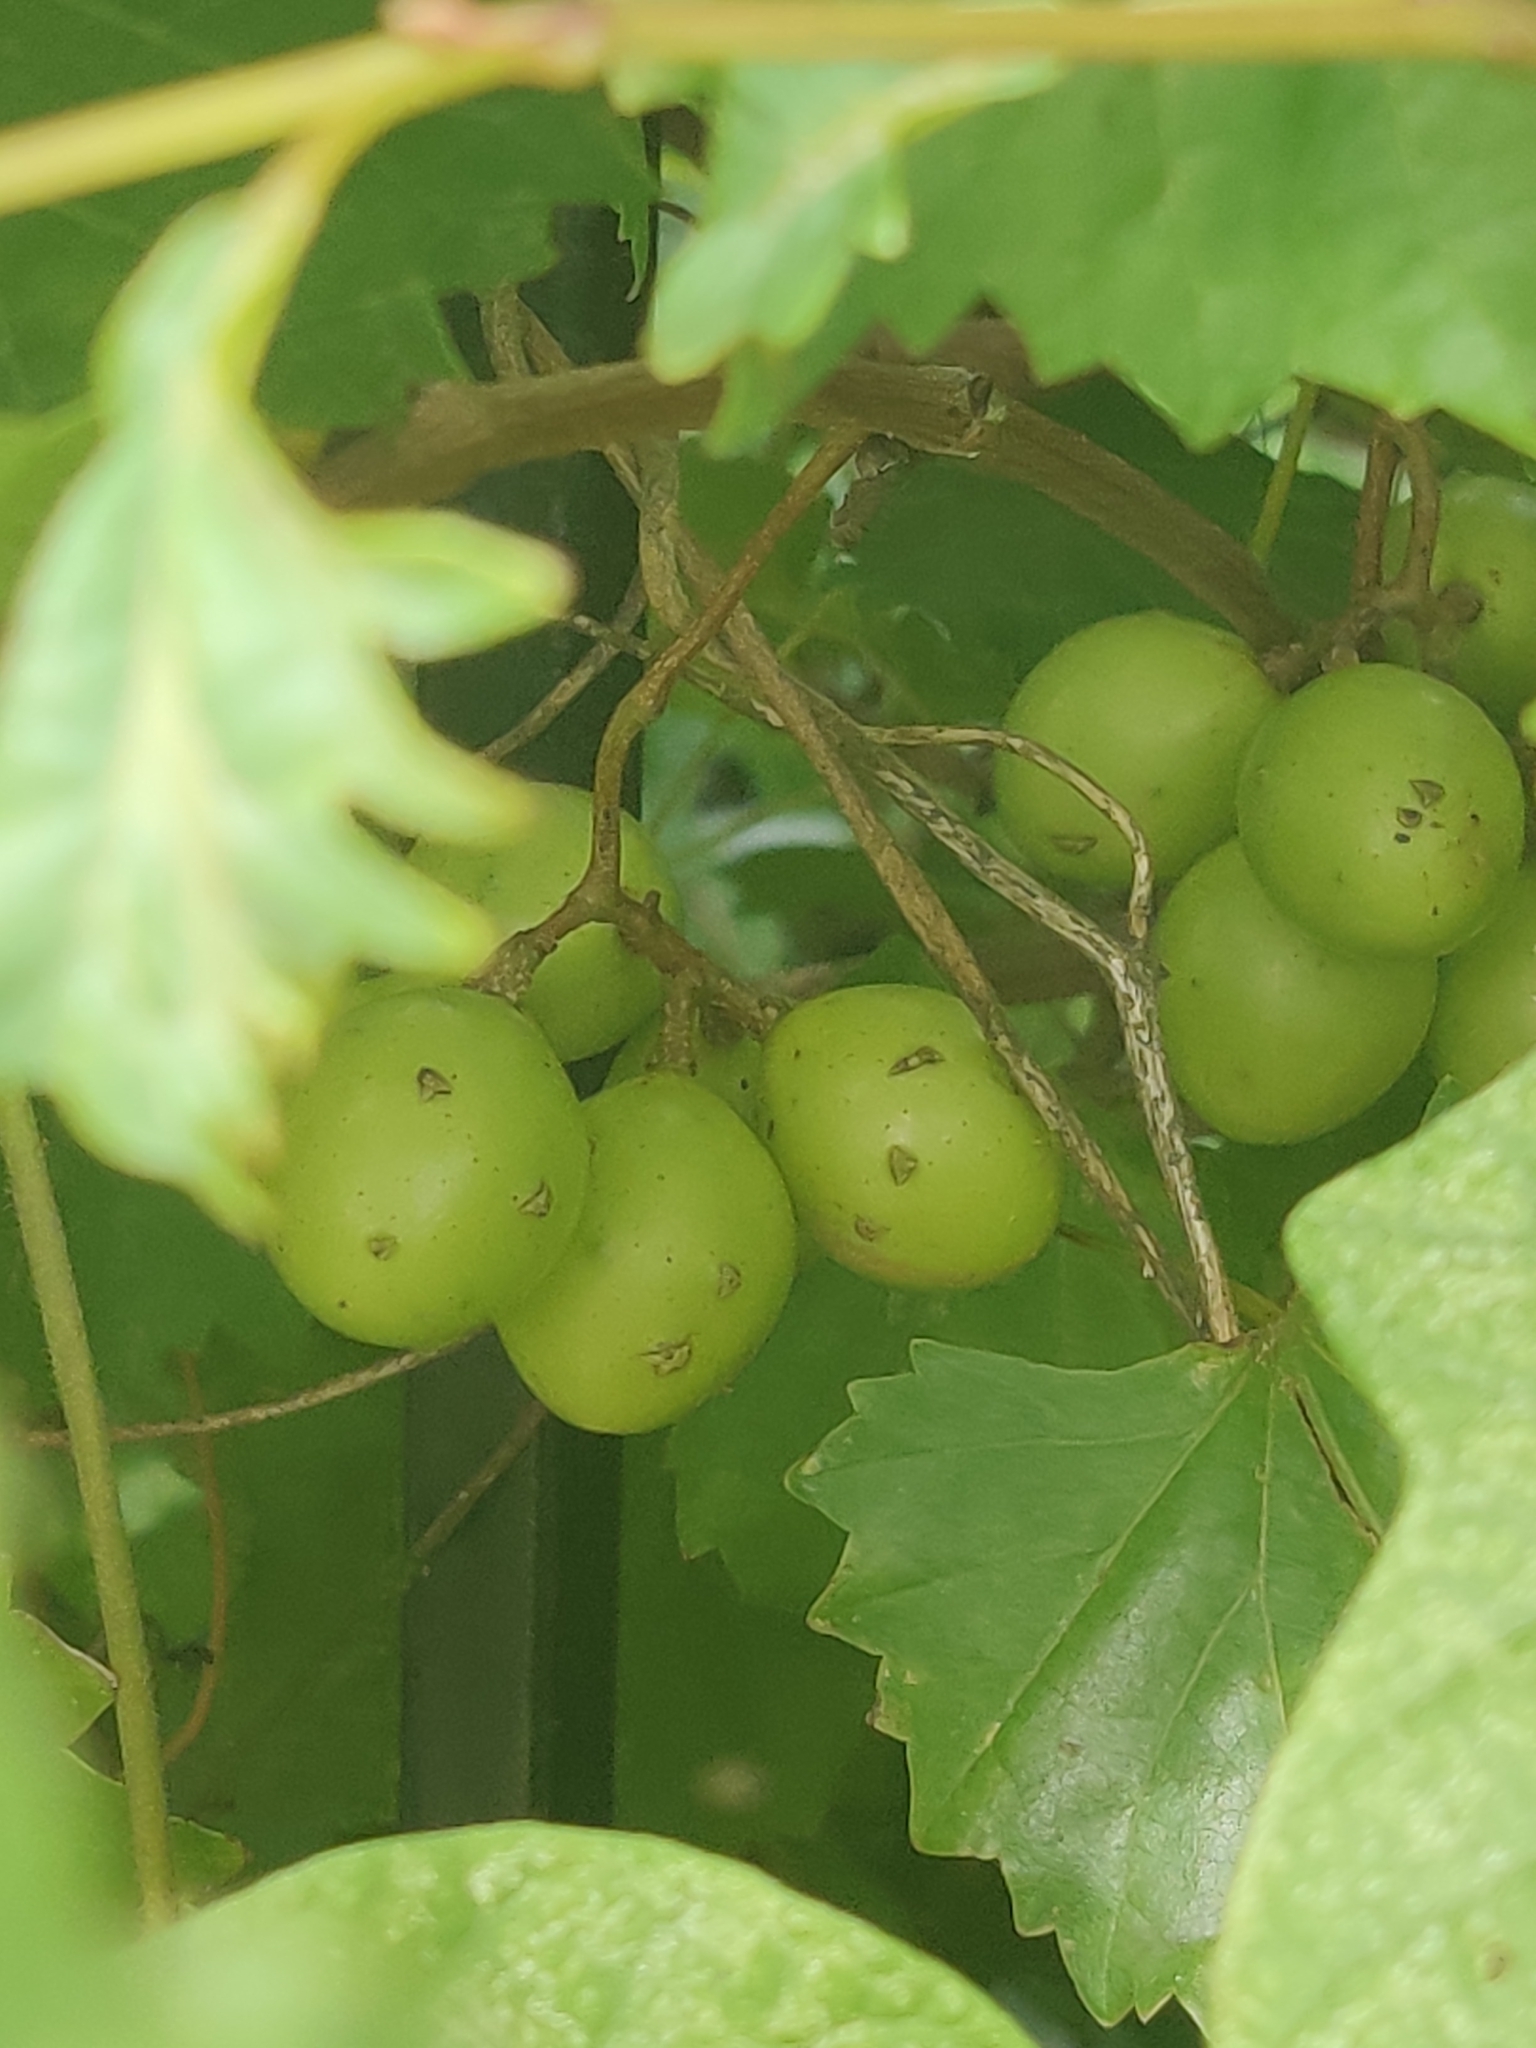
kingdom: Plantae
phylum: Tracheophyta
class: Magnoliopsida
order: Vitales
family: Vitaceae
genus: Vitis
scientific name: Vitis rotundifolia
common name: Muscadine grape
